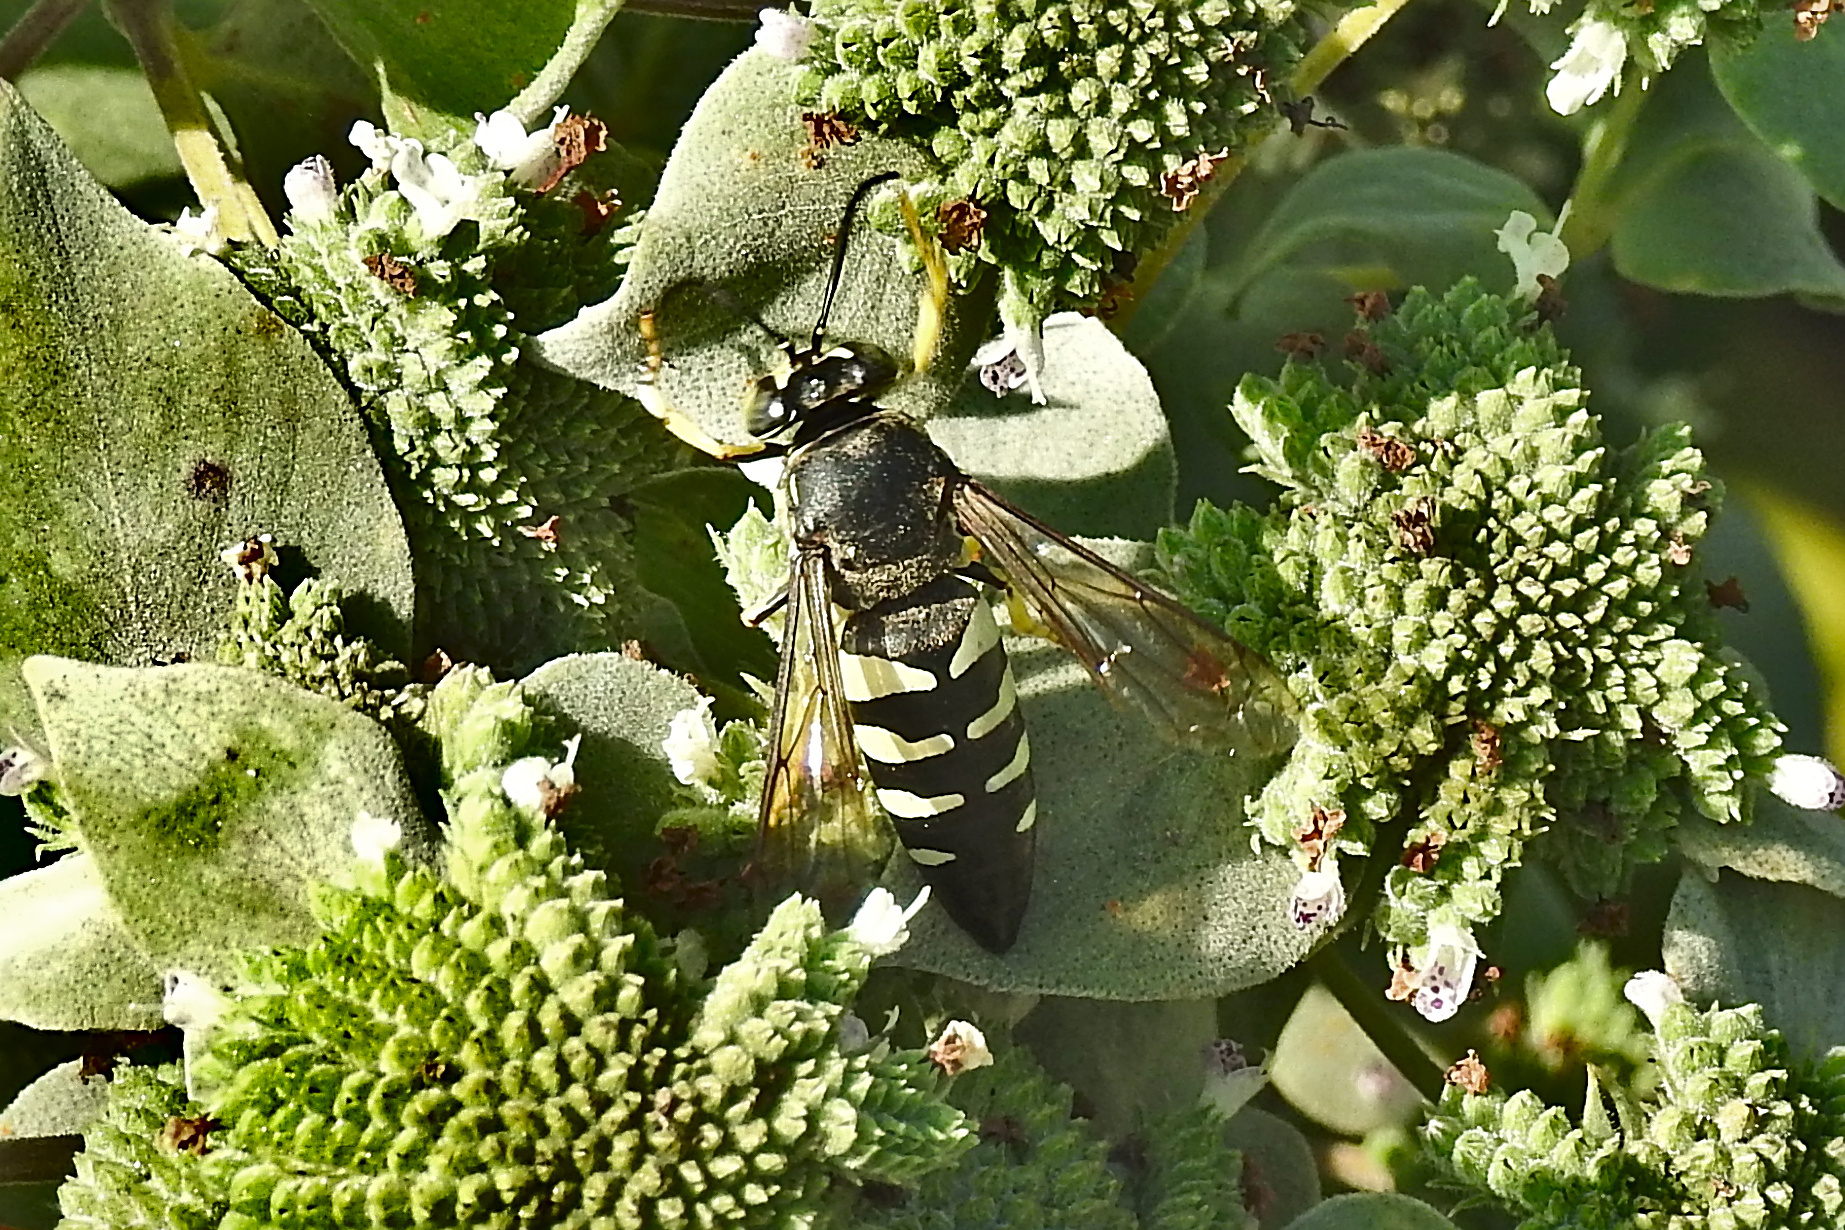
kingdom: Animalia
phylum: Arthropoda
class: Insecta
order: Hymenoptera
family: Crabronidae
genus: Bicyrtes
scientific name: Bicyrtes quadrifasciatus
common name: Four-banded stink bug hunter wasp
